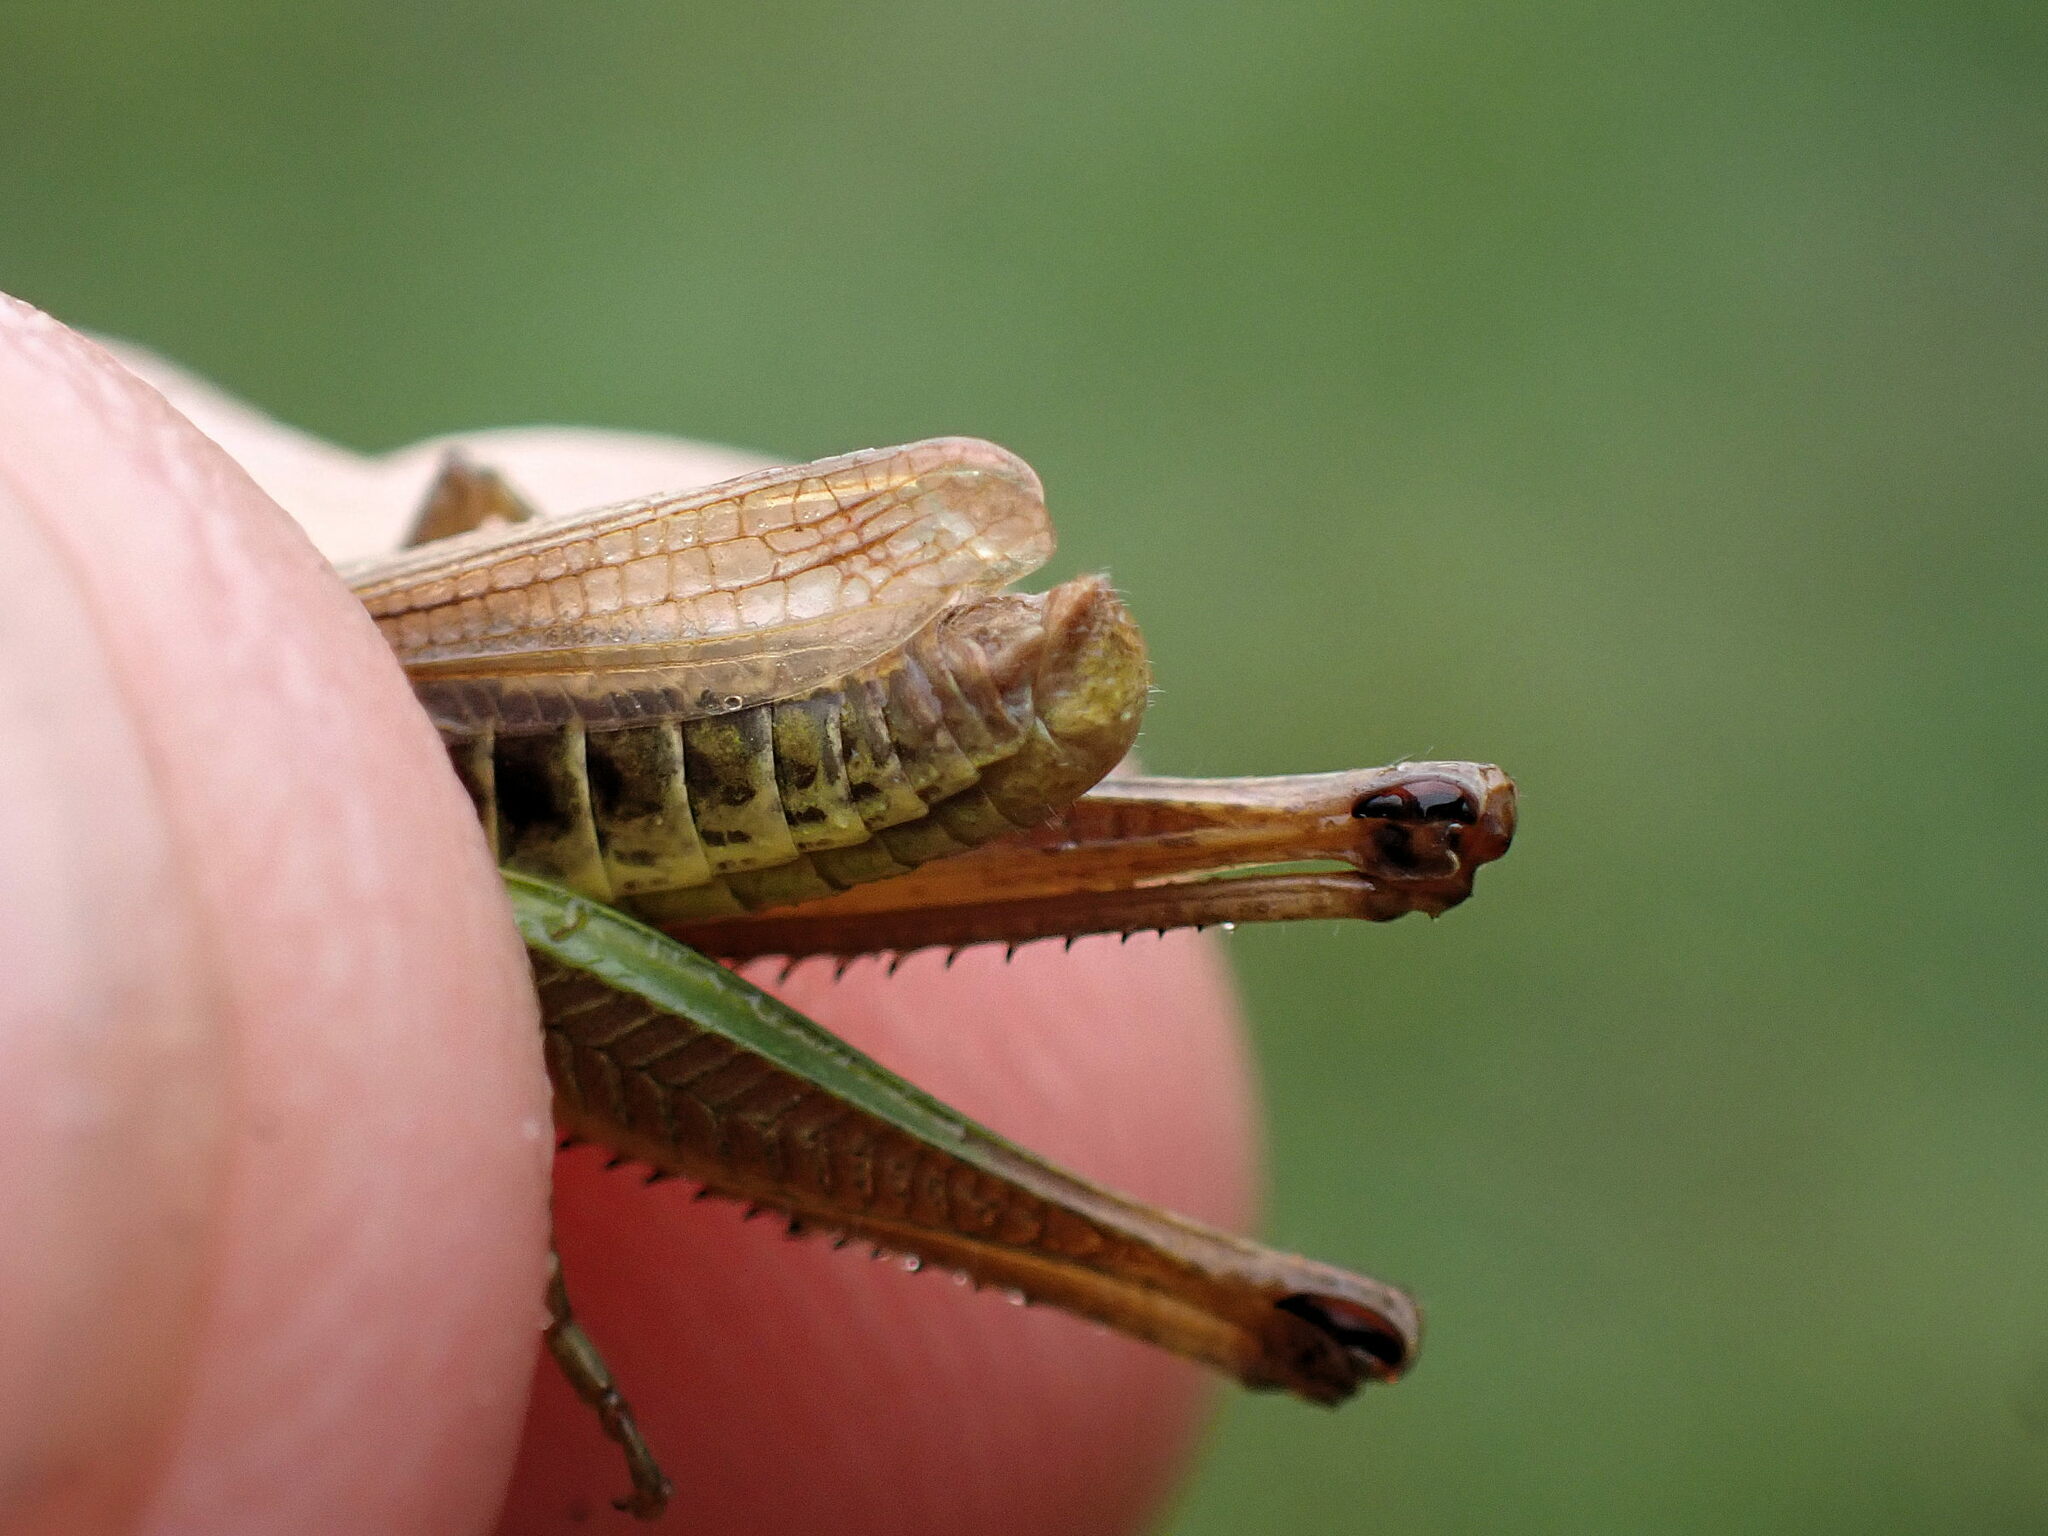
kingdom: Animalia
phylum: Arthropoda
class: Insecta
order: Orthoptera
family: Acrididae
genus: Pseudochorthippus
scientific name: Pseudochorthippus parallelus
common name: Meadow grasshopper
